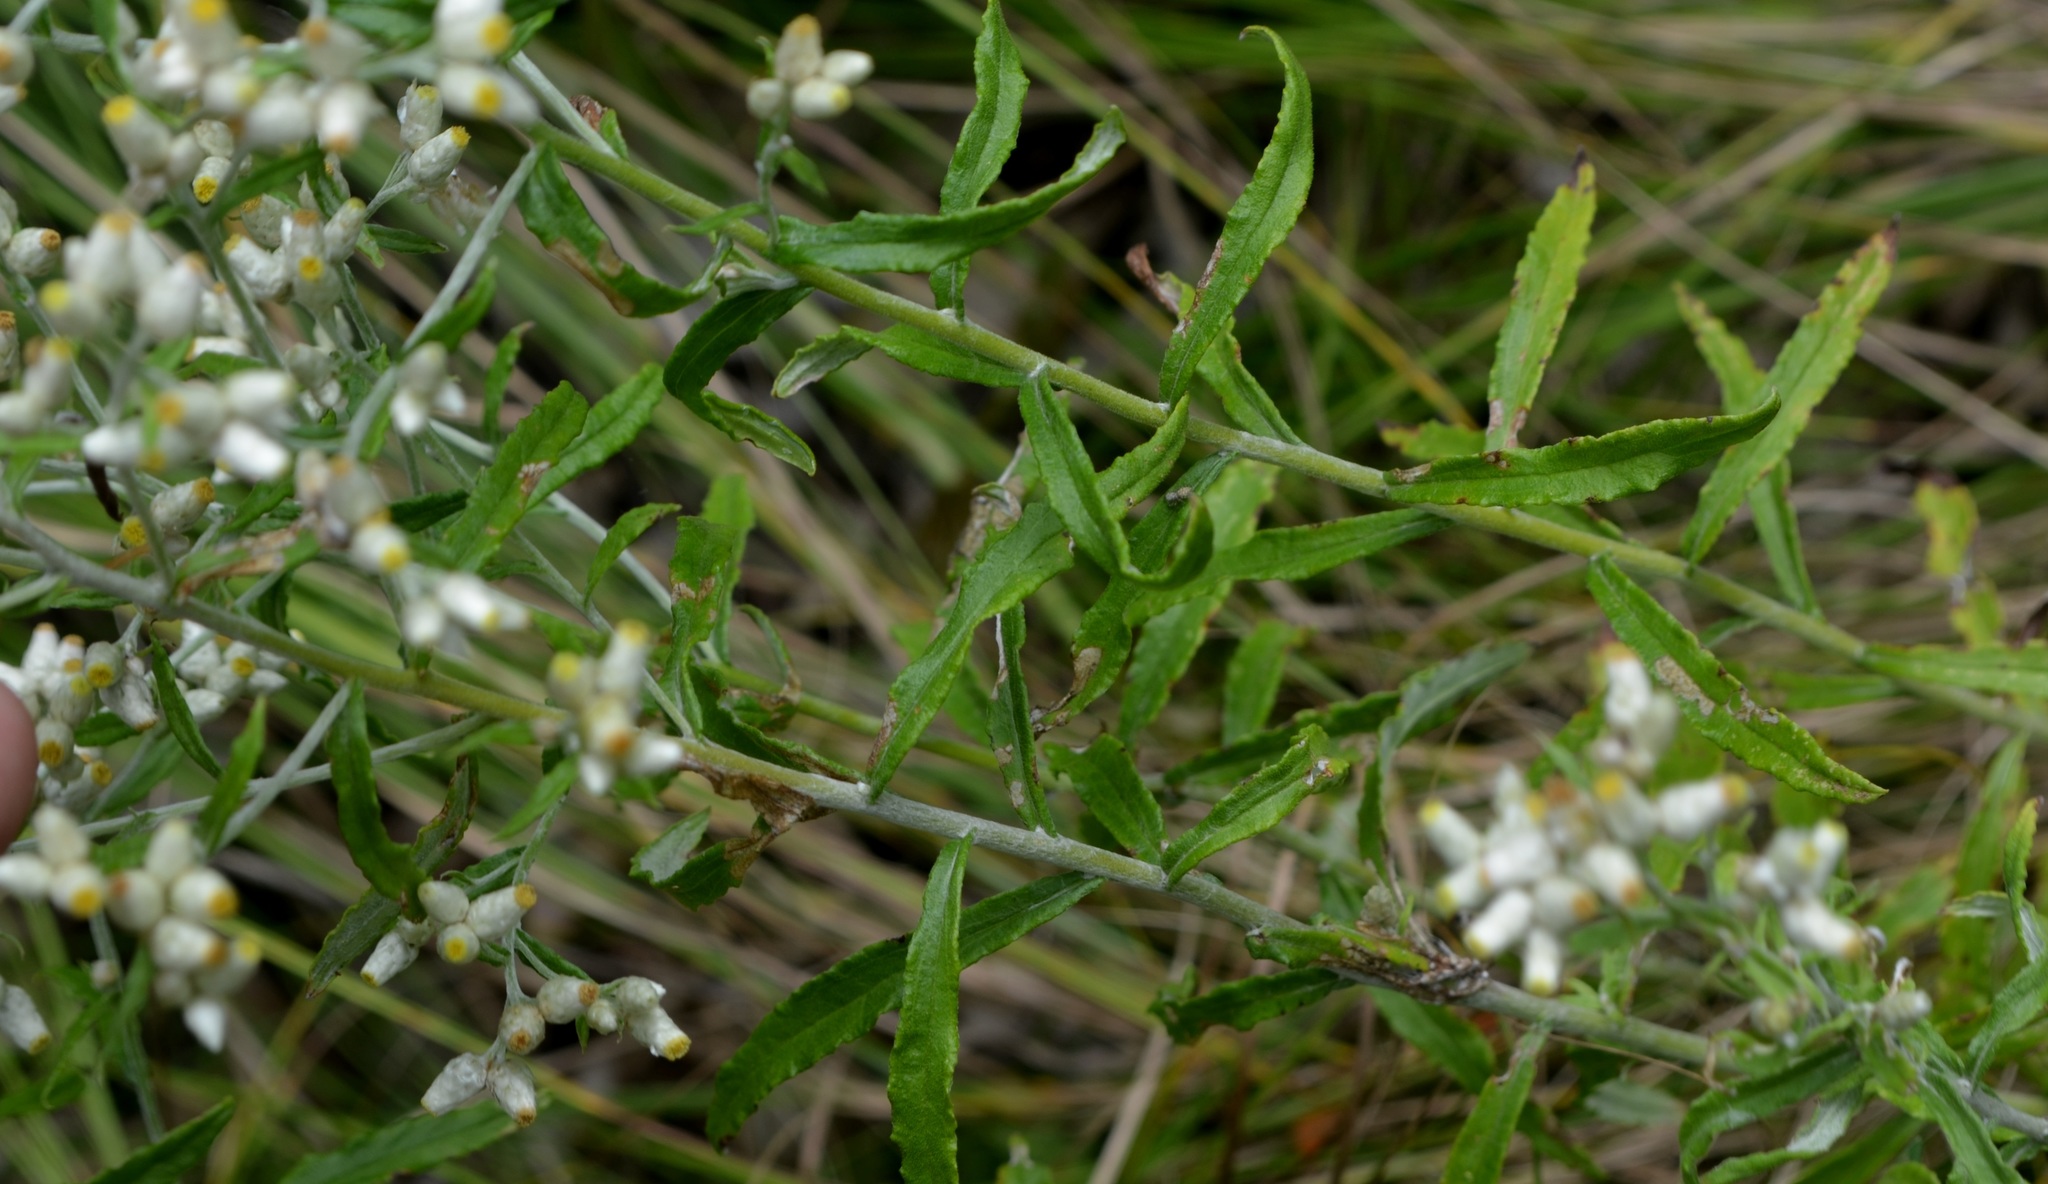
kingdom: Plantae
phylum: Tracheophyta
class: Magnoliopsida
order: Asterales
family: Asteraceae
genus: Pseudognaphalium
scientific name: Pseudognaphalium obtusifolium
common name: Eastern rabbit-tobacco
